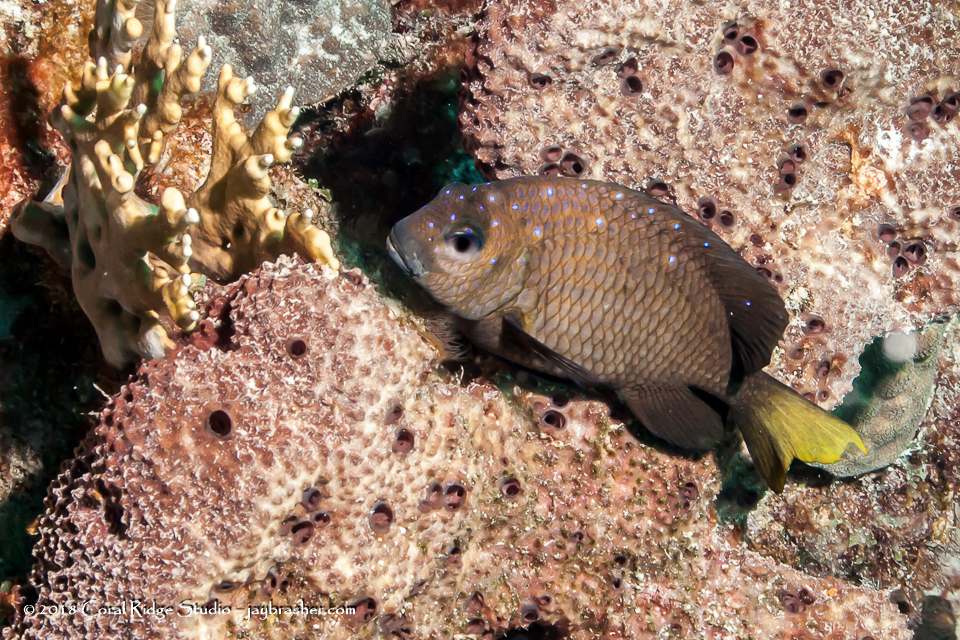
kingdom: Animalia
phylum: Chordata
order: Perciformes
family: Pomacentridae
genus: Microspathodon
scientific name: Microspathodon chrysurus
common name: Yellowtail damselfish
